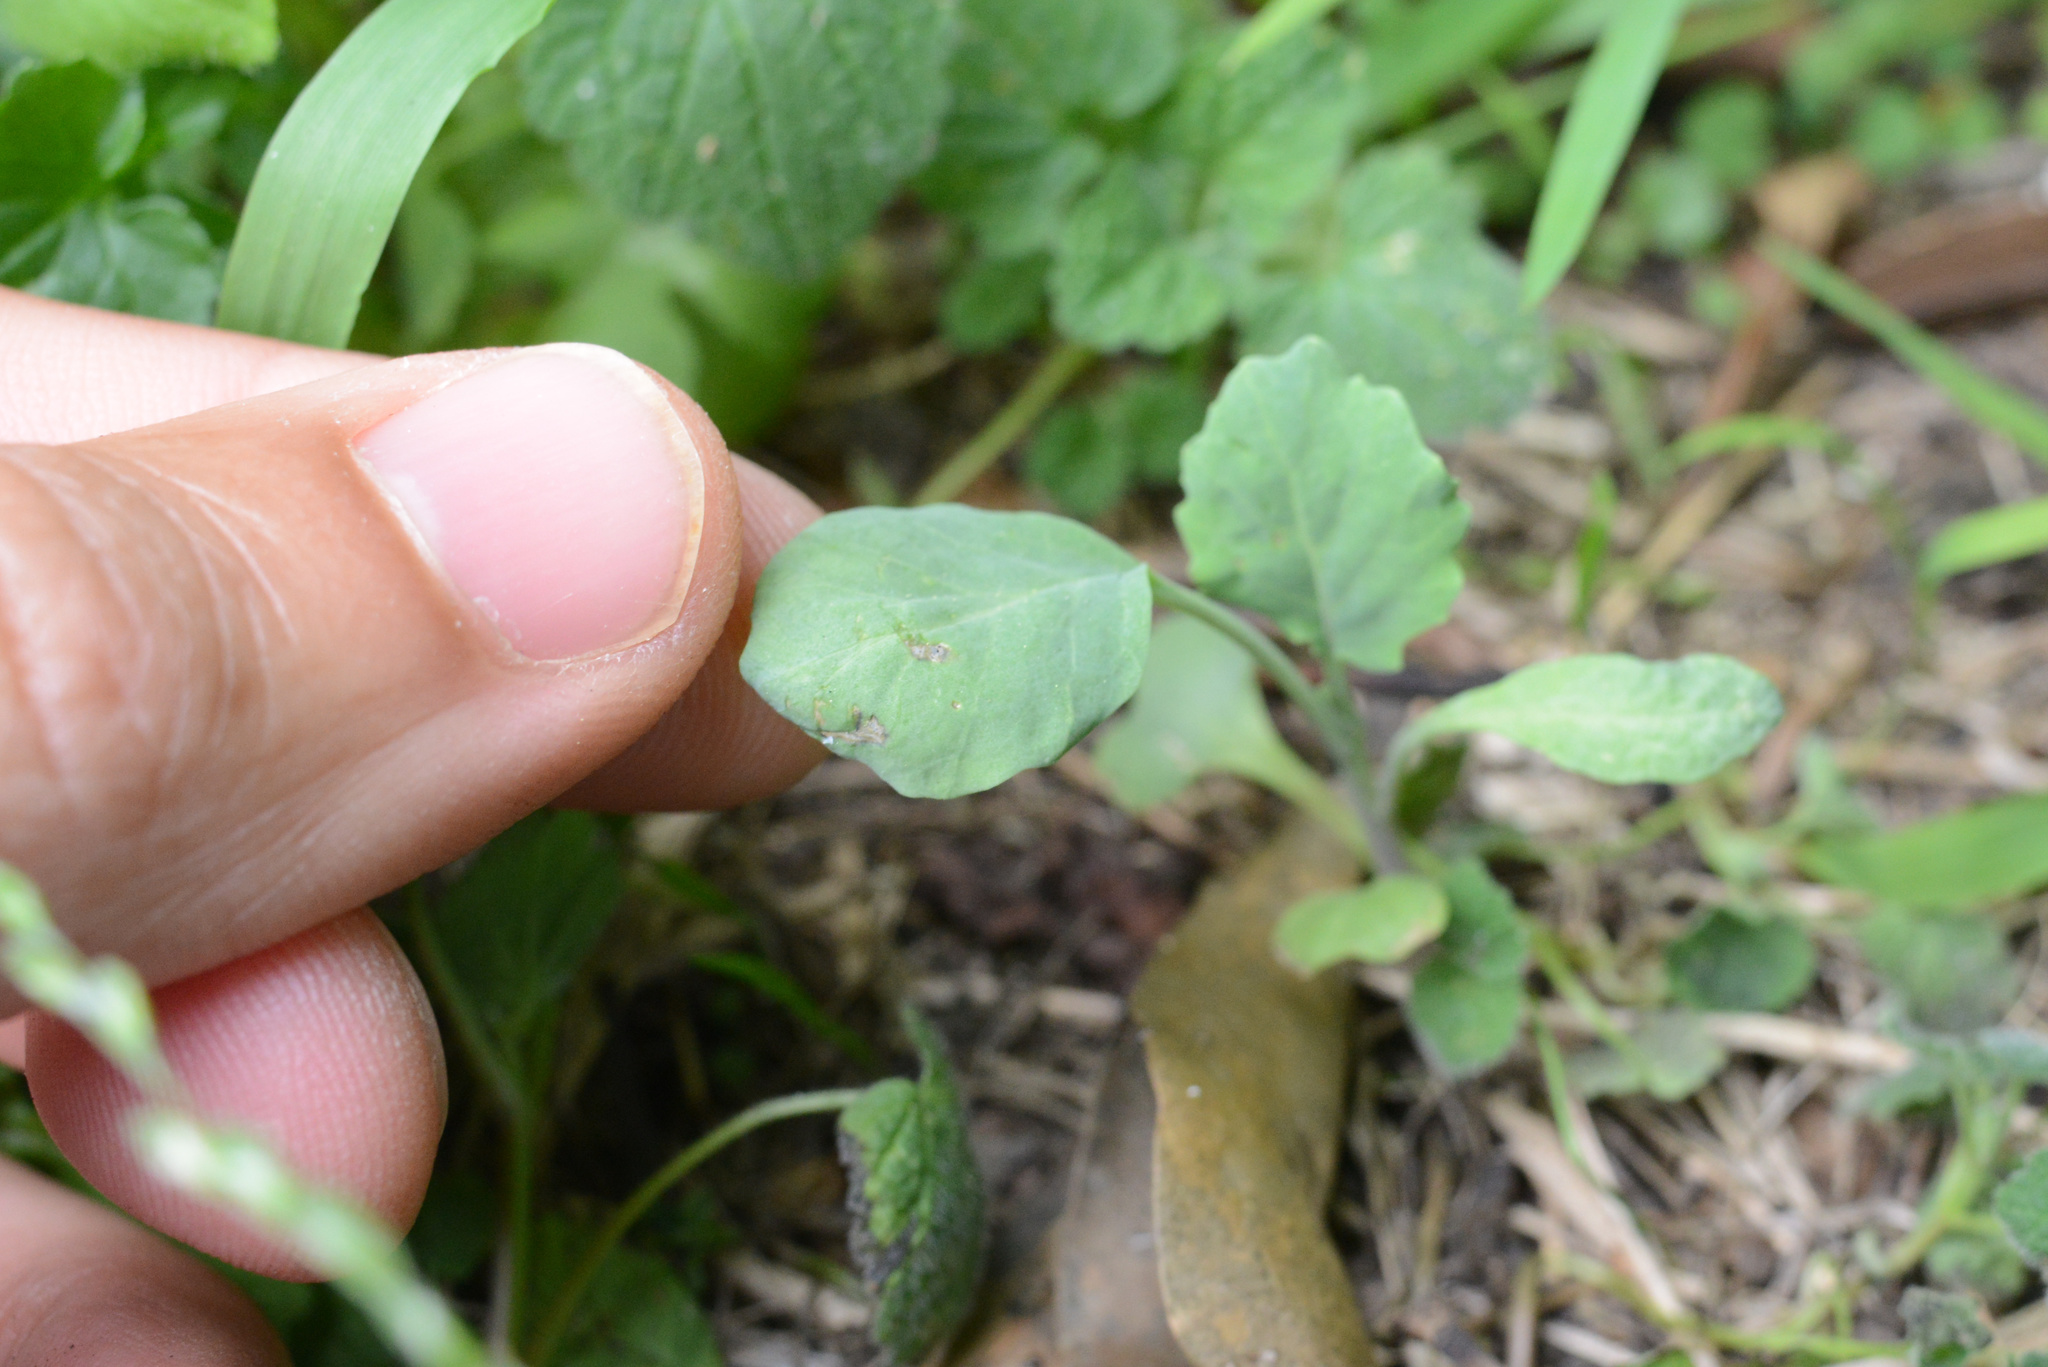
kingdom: Plantae
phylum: Tracheophyta
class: Magnoliopsida
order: Brassicales
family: Brassicaceae
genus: Brassica
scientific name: Brassica oleracea
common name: Cabbage
